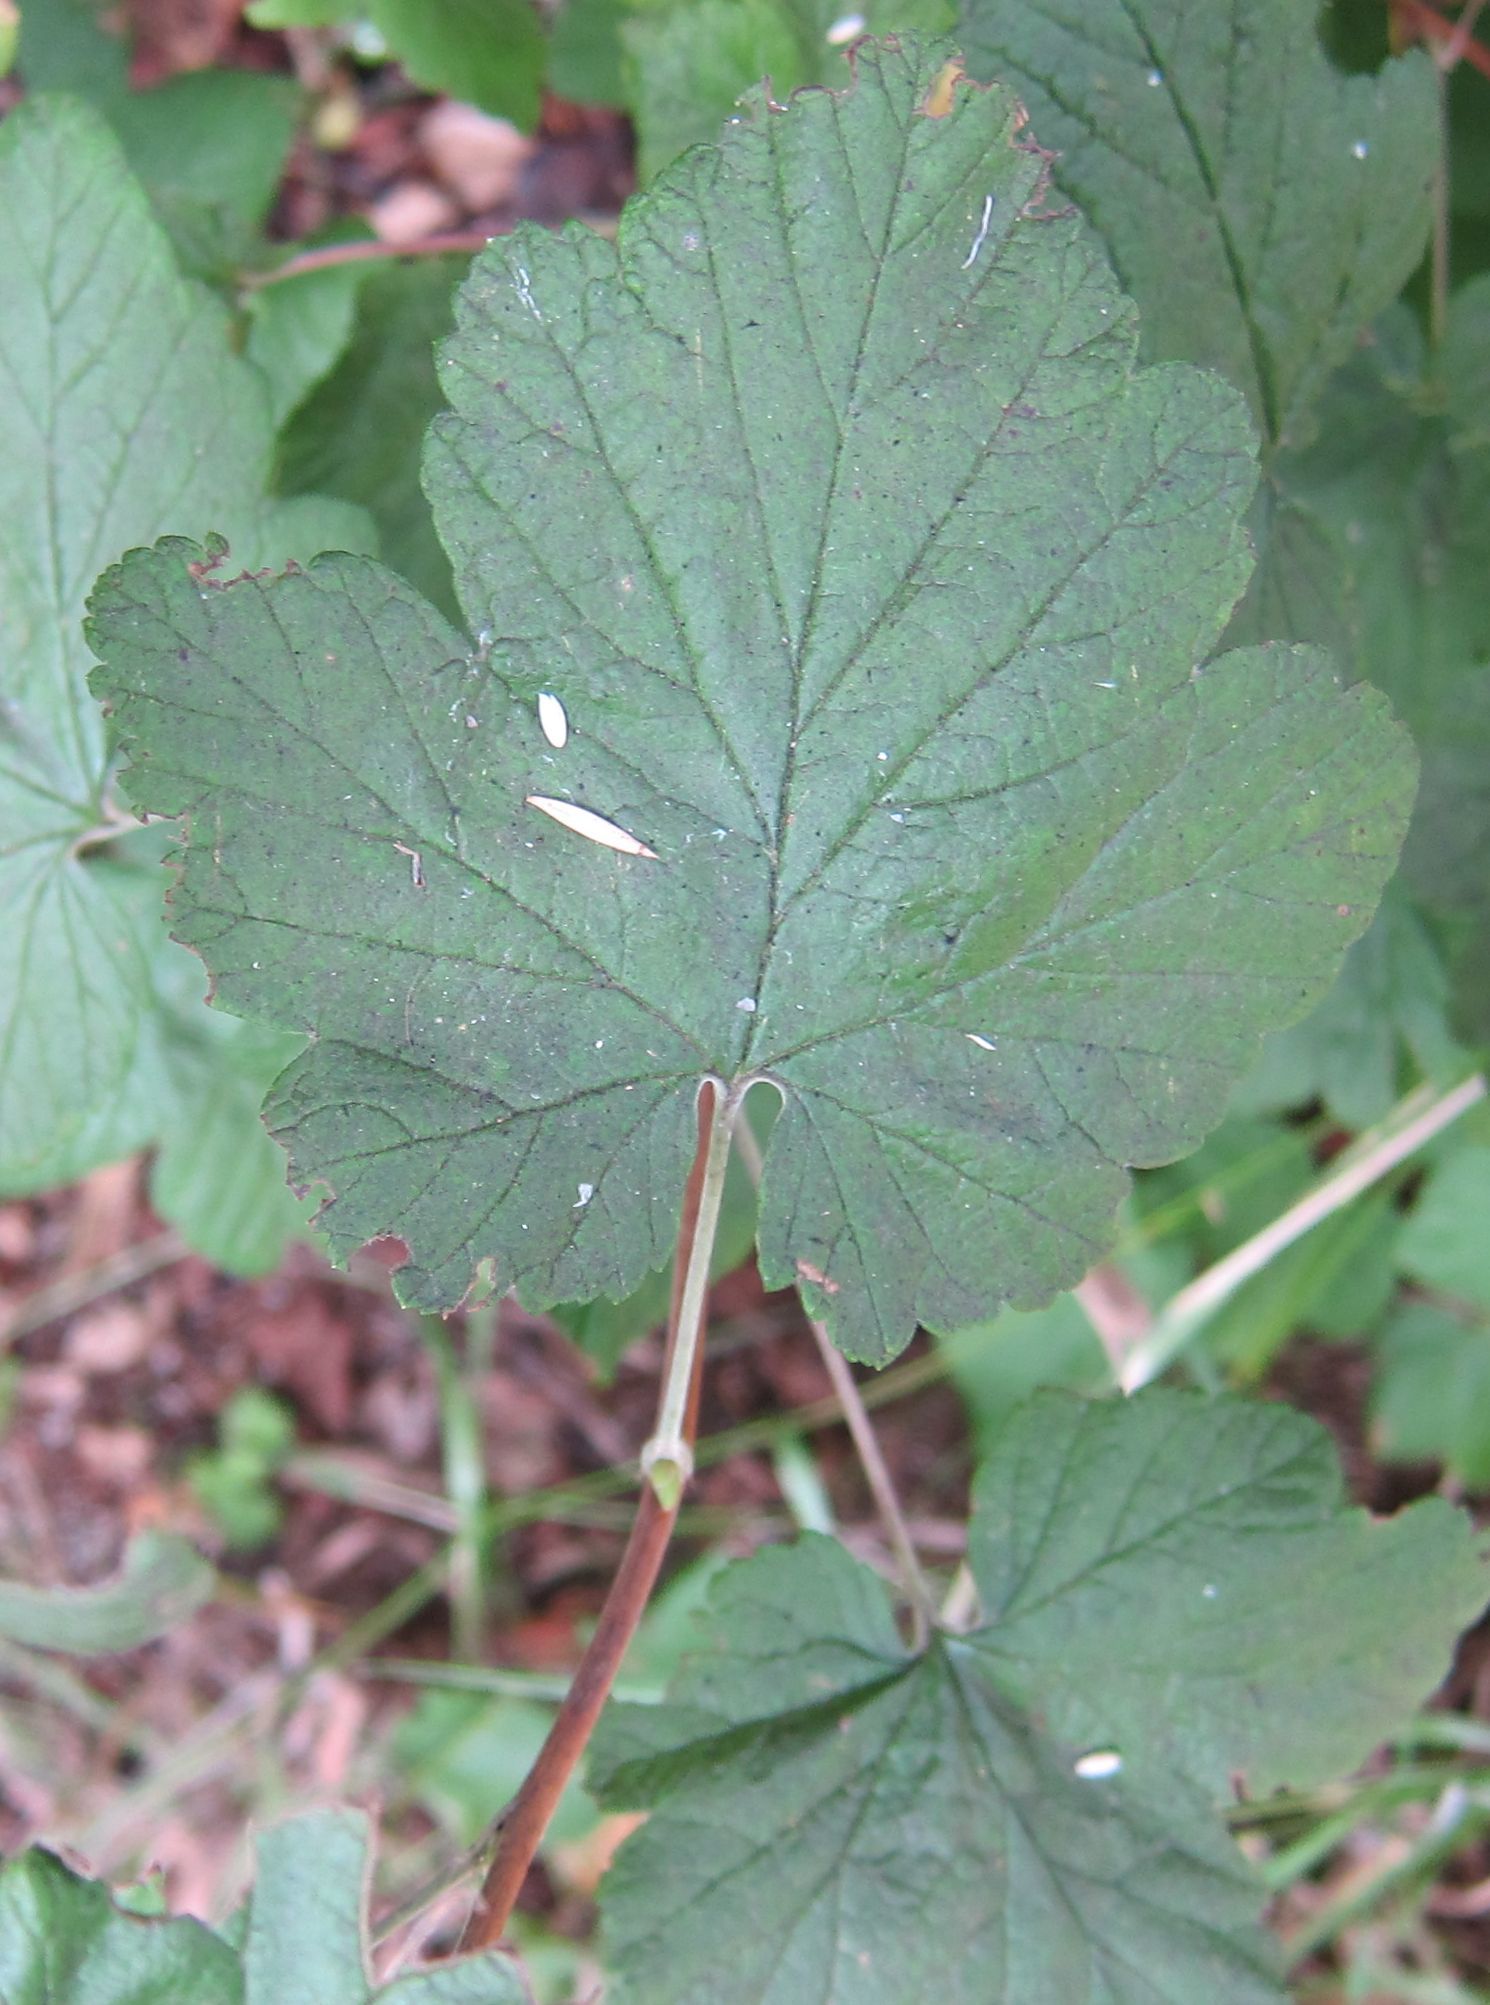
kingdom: Plantae
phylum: Tracheophyta
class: Magnoliopsida
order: Saxifragales
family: Grossulariaceae
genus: Ribes
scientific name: Ribes sanguineum
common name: Flowering currant
